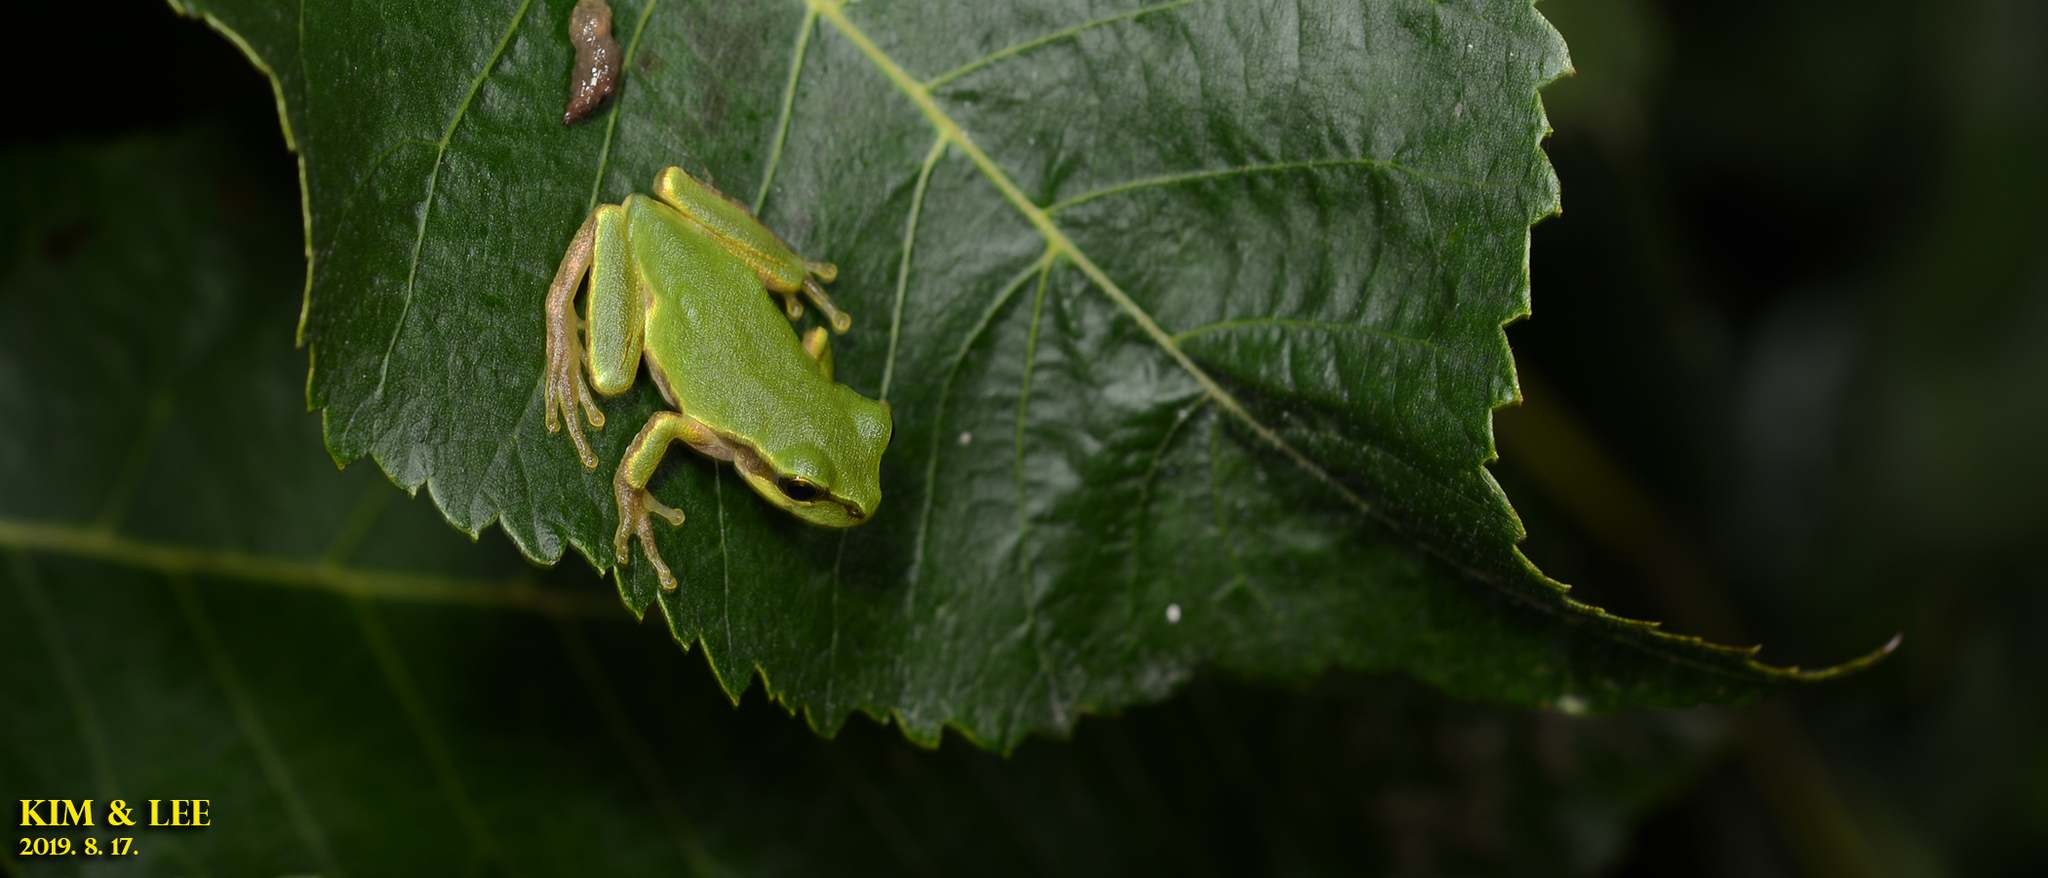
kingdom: Animalia
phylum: Chordata
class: Amphibia
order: Anura
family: Hylidae
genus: Dryophytes
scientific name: Dryophytes japonicus
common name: Japanese treefrog
